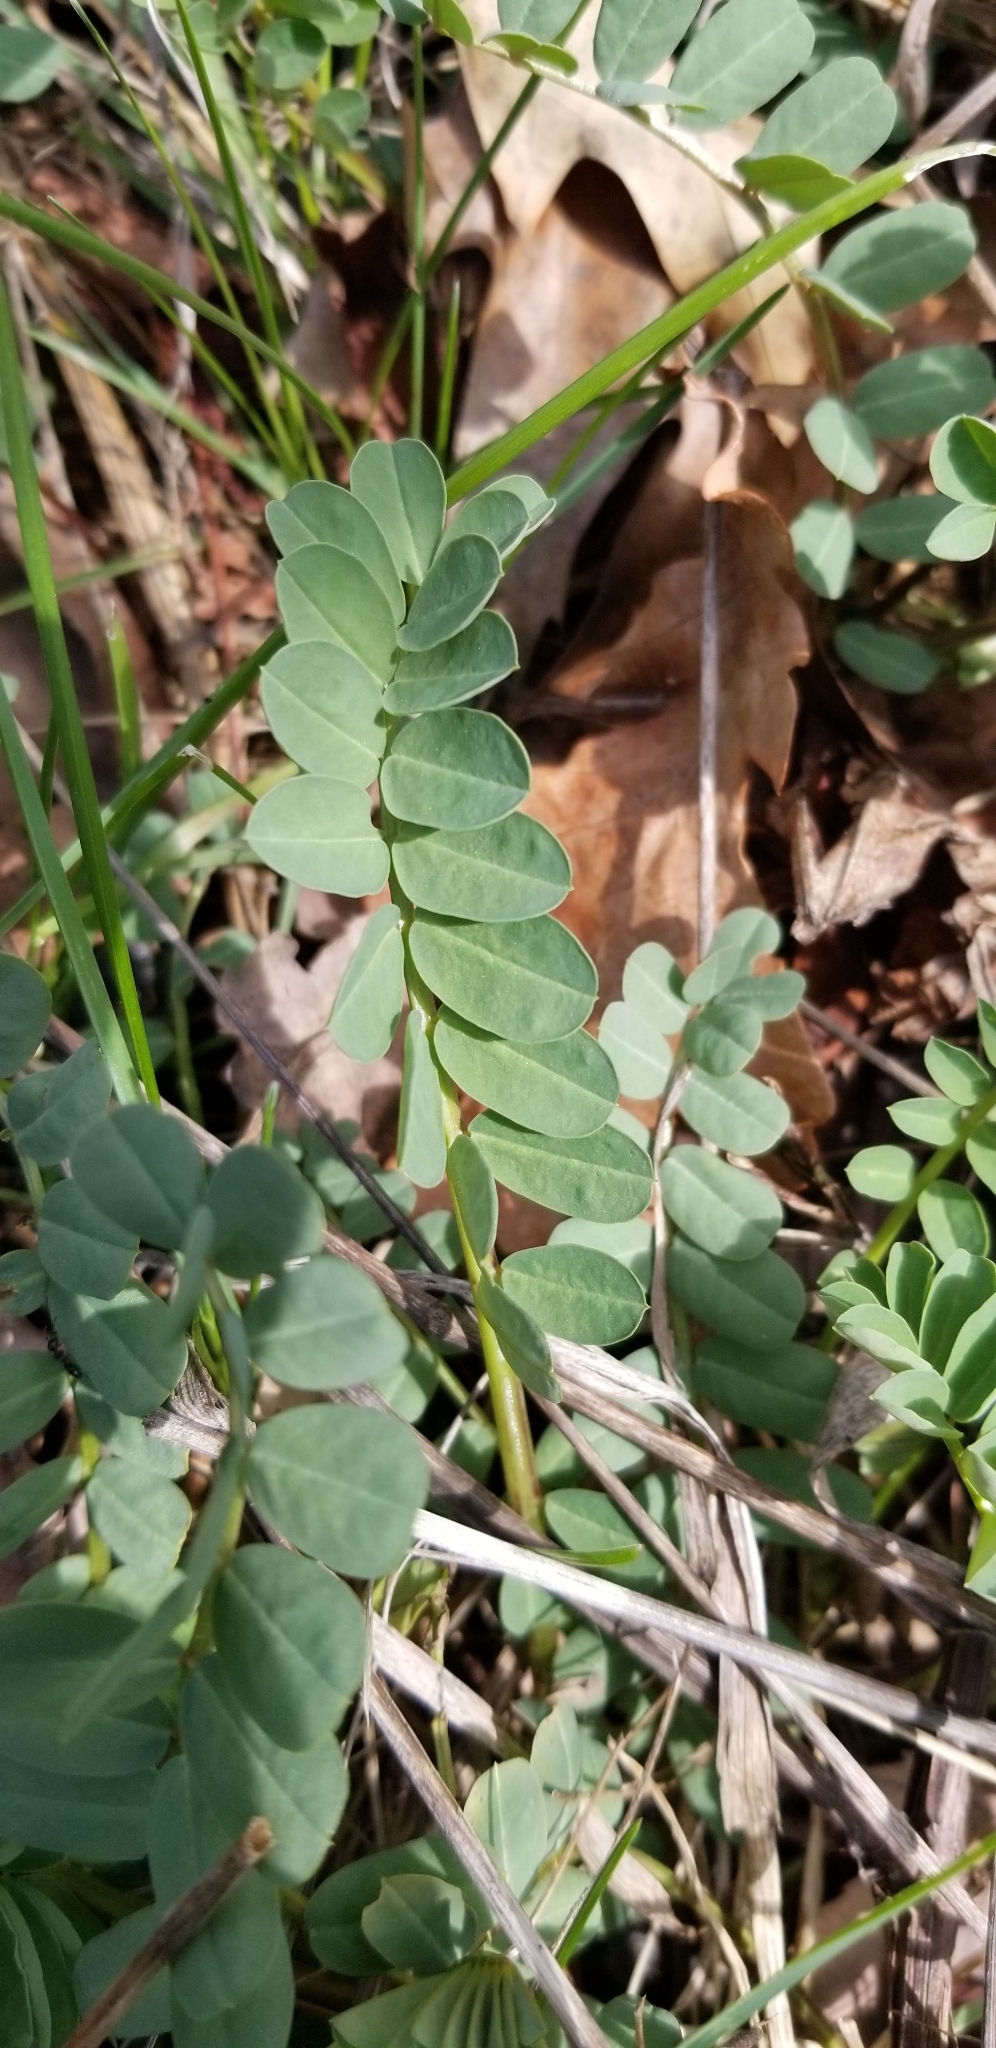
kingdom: Plantae
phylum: Tracheophyta
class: Magnoliopsida
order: Fabales
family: Fabaceae
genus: Coronilla
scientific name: Coronilla varia
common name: Crownvetch
